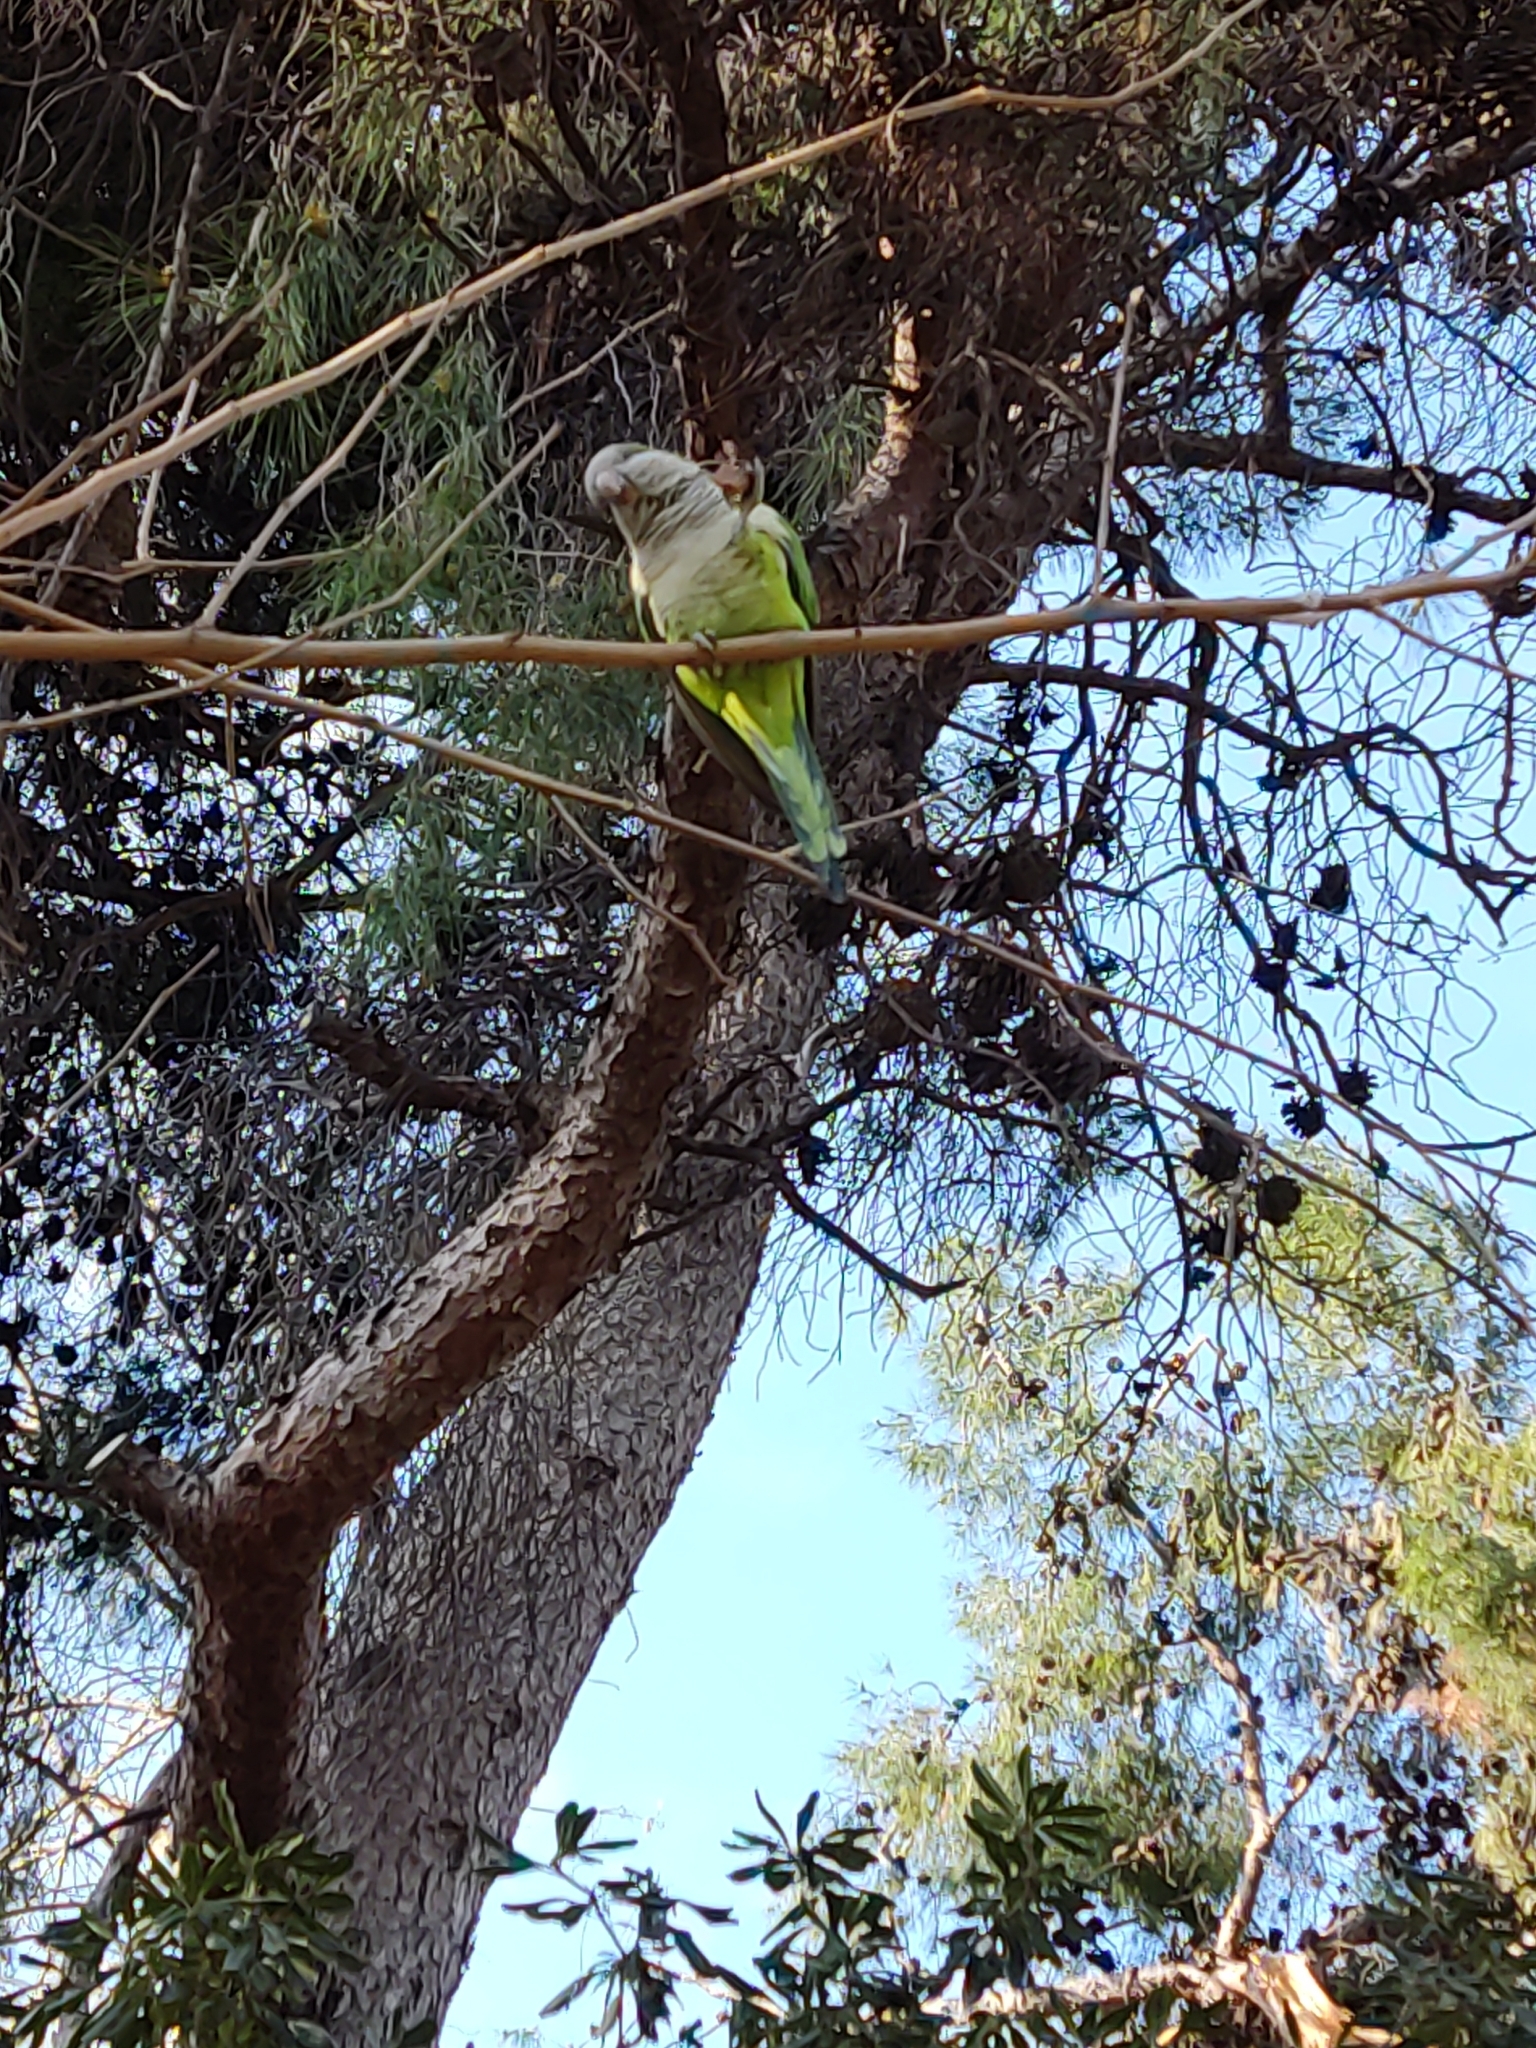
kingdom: Animalia
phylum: Chordata
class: Aves
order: Psittaciformes
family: Psittacidae
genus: Myiopsitta
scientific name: Myiopsitta monachus
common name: Monk parakeet
